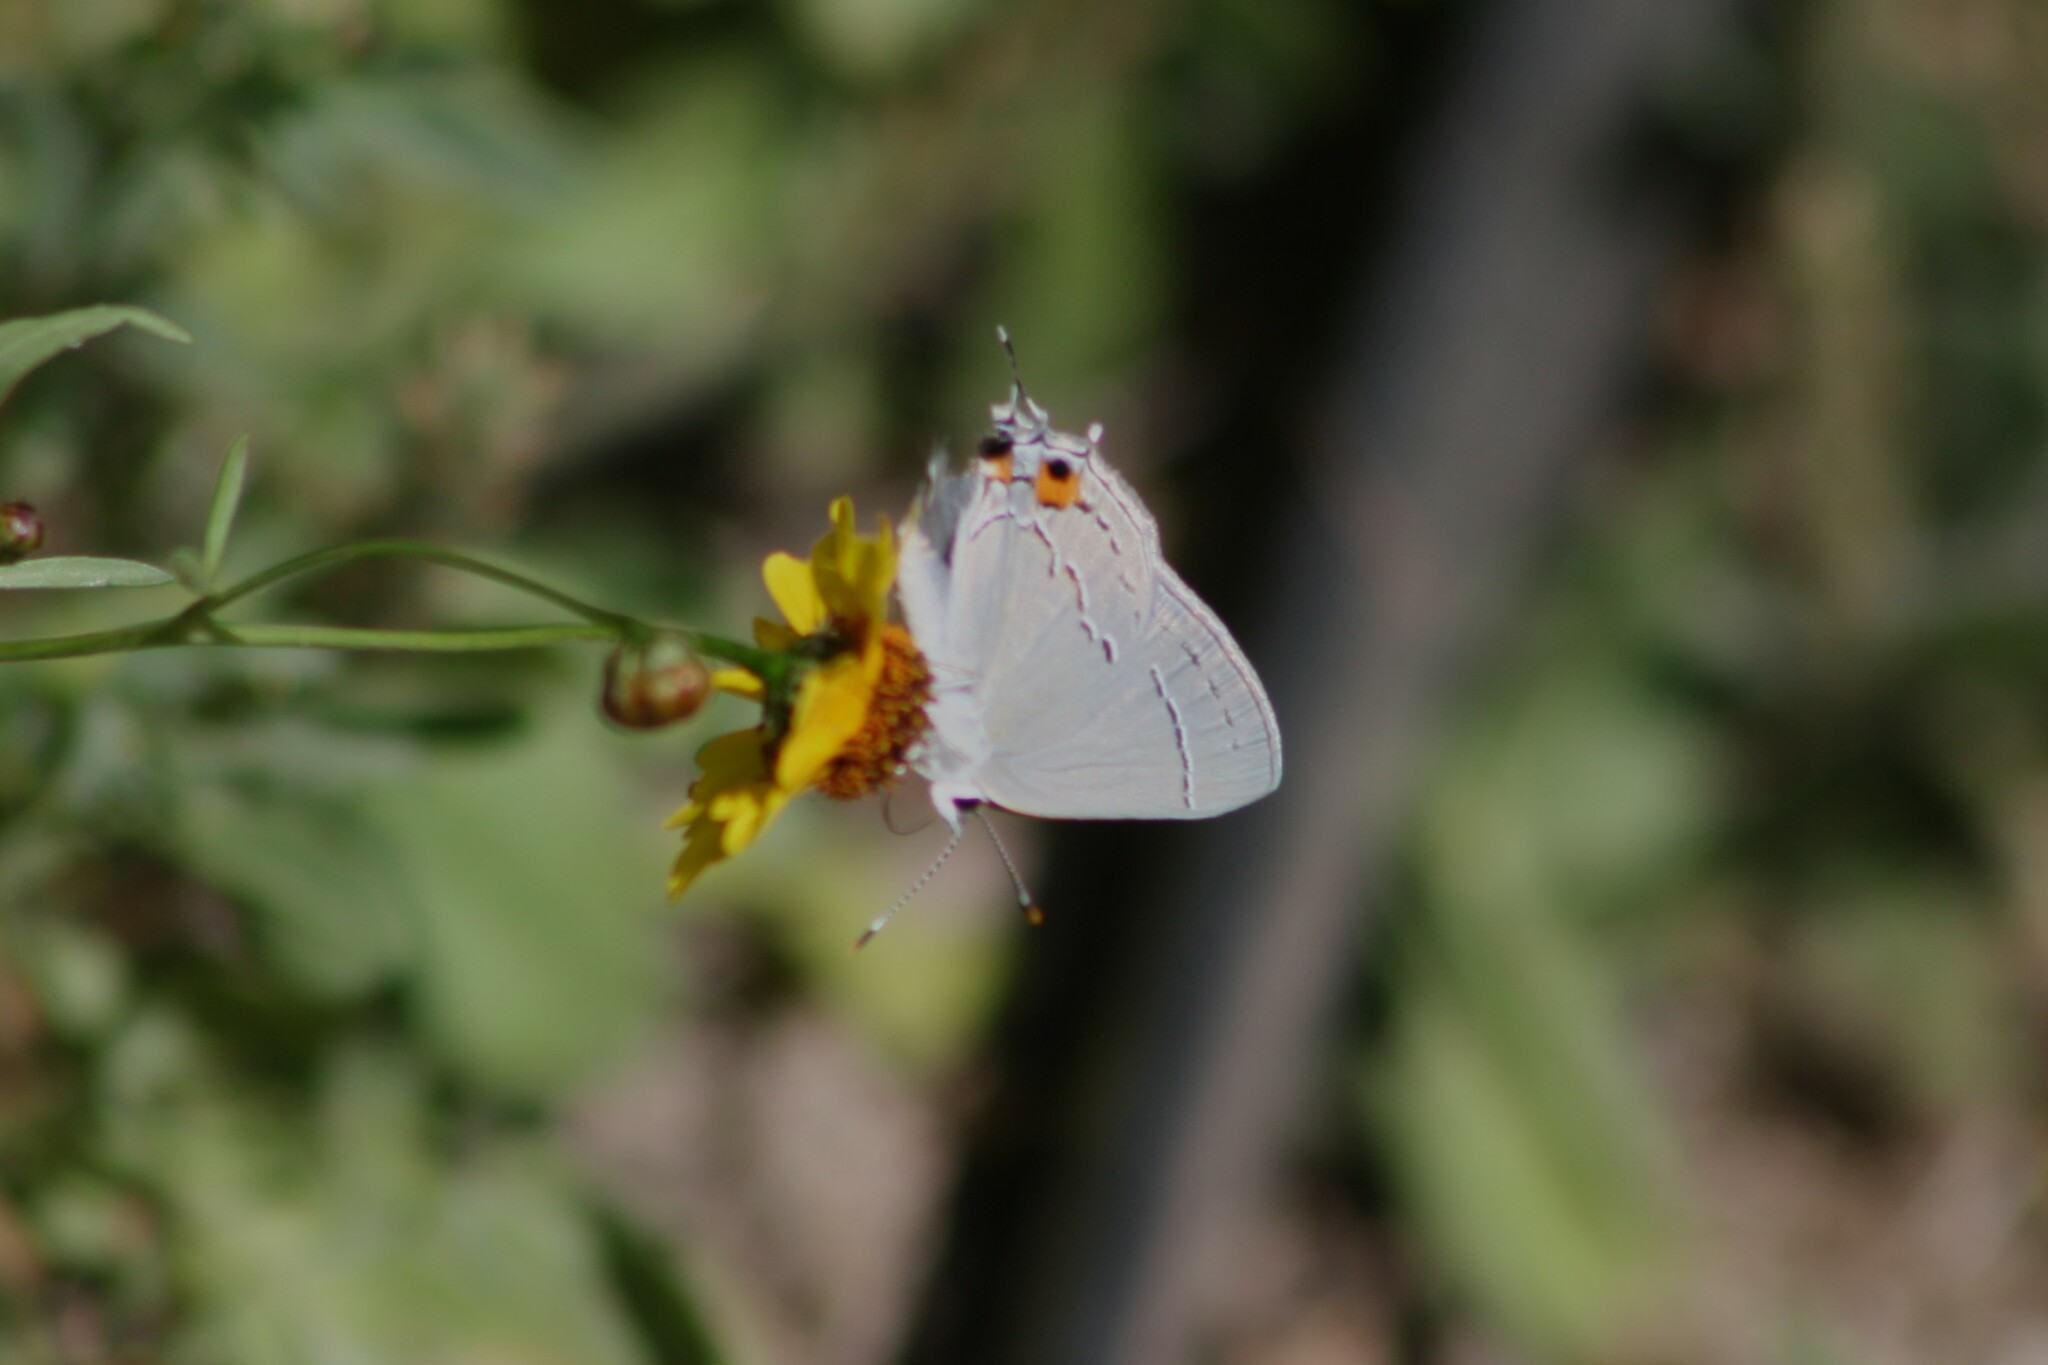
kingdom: Animalia
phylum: Arthropoda
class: Insecta
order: Lepidoptera
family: Lycaenidae
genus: Strymon
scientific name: Strymon melinus
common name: Gray hairstreak
